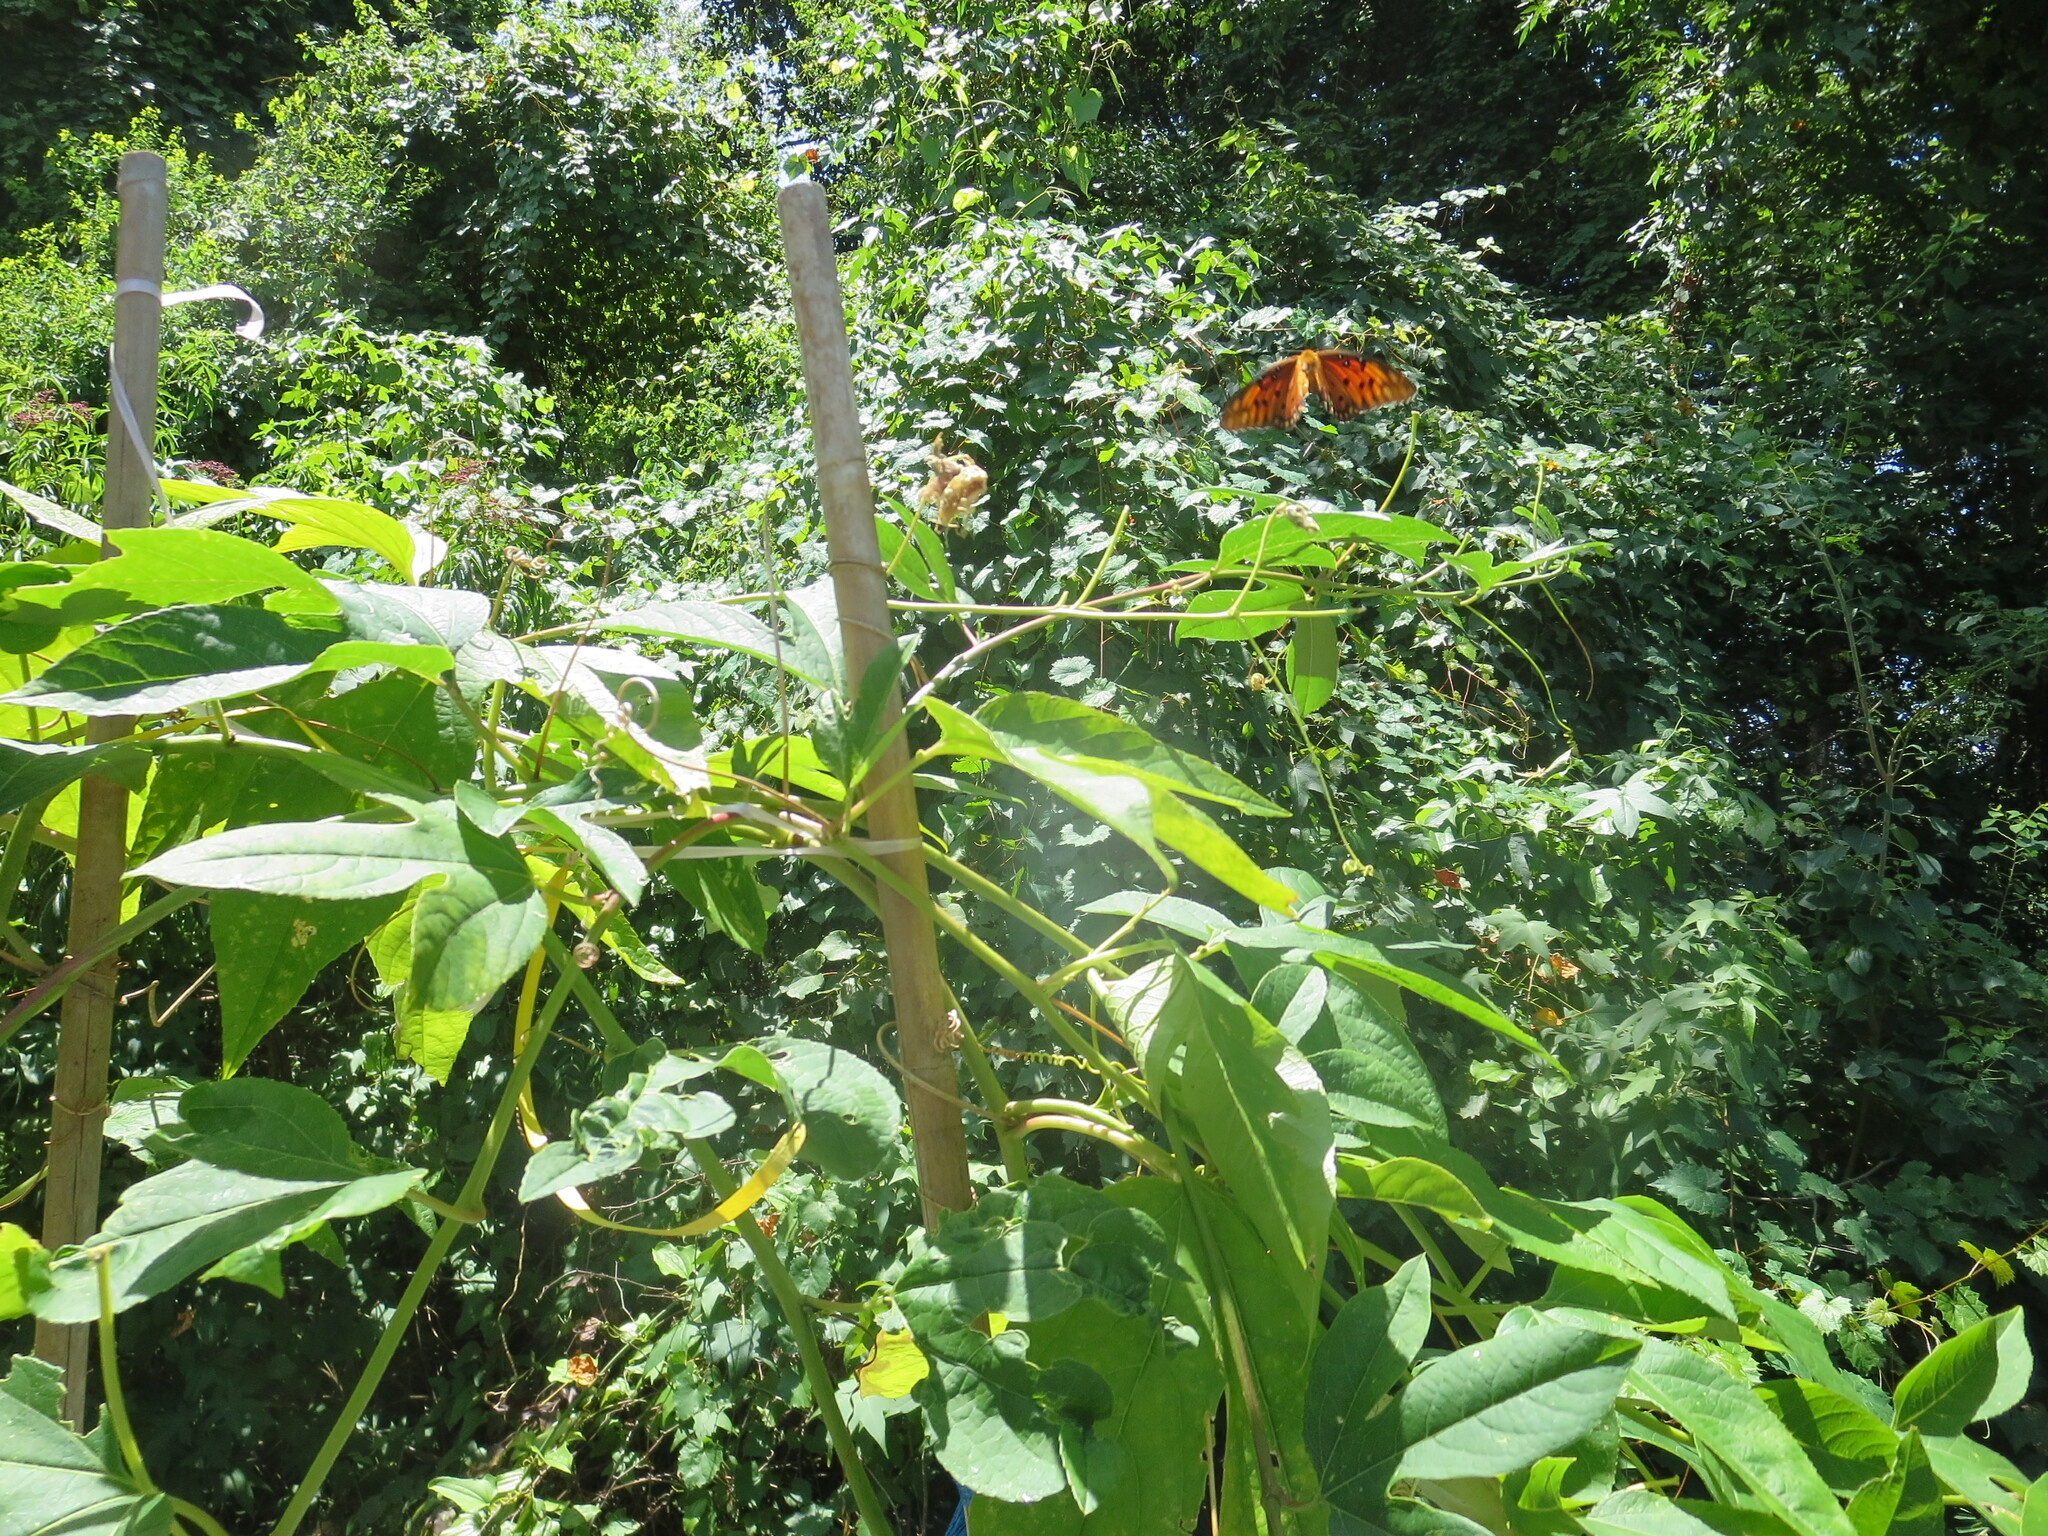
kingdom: Animalia
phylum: Arthropoda
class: Insecta
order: Lepidoptera
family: Nymphalidae
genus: Dione
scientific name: Dione vanillae
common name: Gulf fritillary
